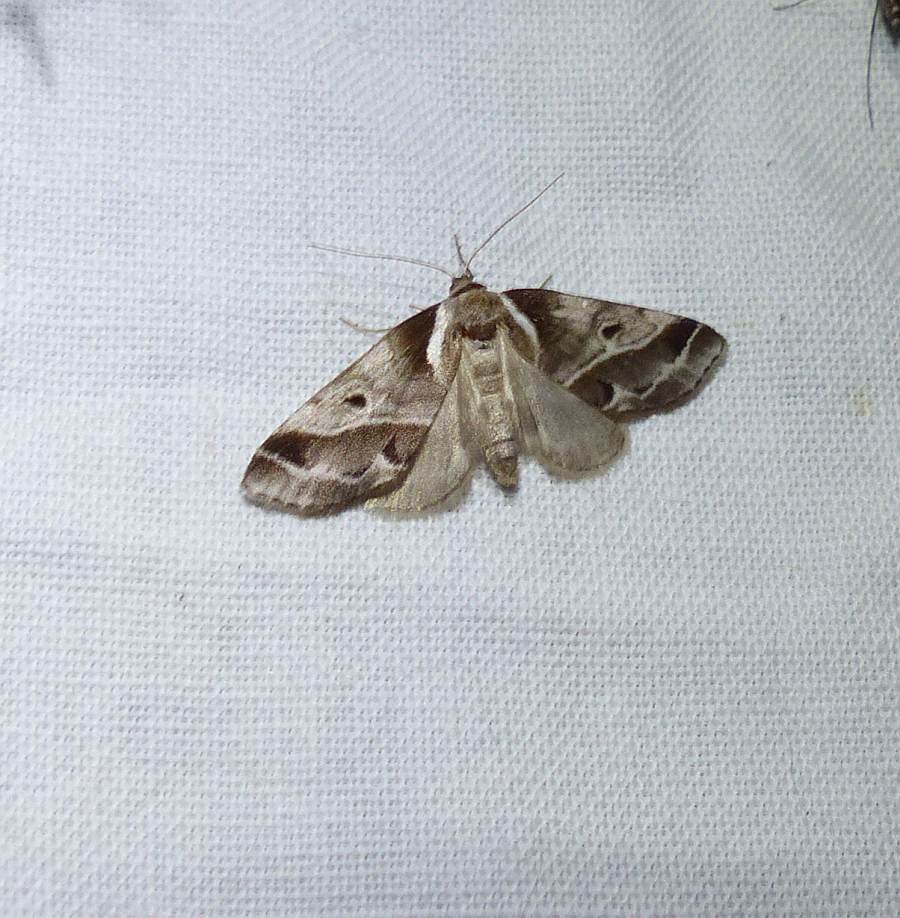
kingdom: Animalia
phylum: Arthropoda
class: Insecta
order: Lepidoptera
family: Nolidae
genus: Baileya
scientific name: Baileya doubledayi
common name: Doubleday's baileya moth
